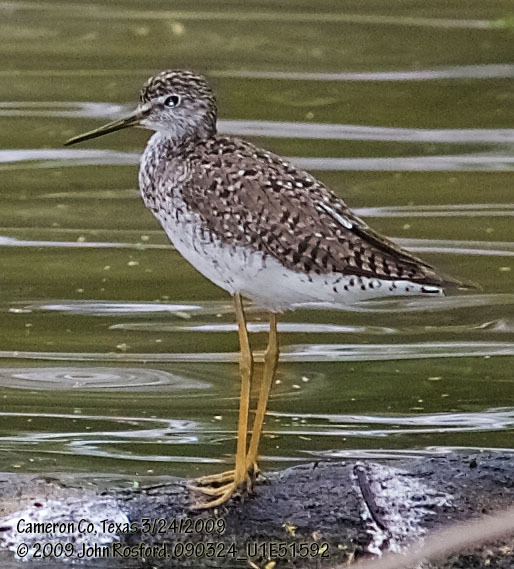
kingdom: Animalia
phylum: Chordata
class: Aves
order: Charadriiformes
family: Scolopacidae
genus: Tringa
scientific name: Tringa flavipes
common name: Lesser yellowlegs
